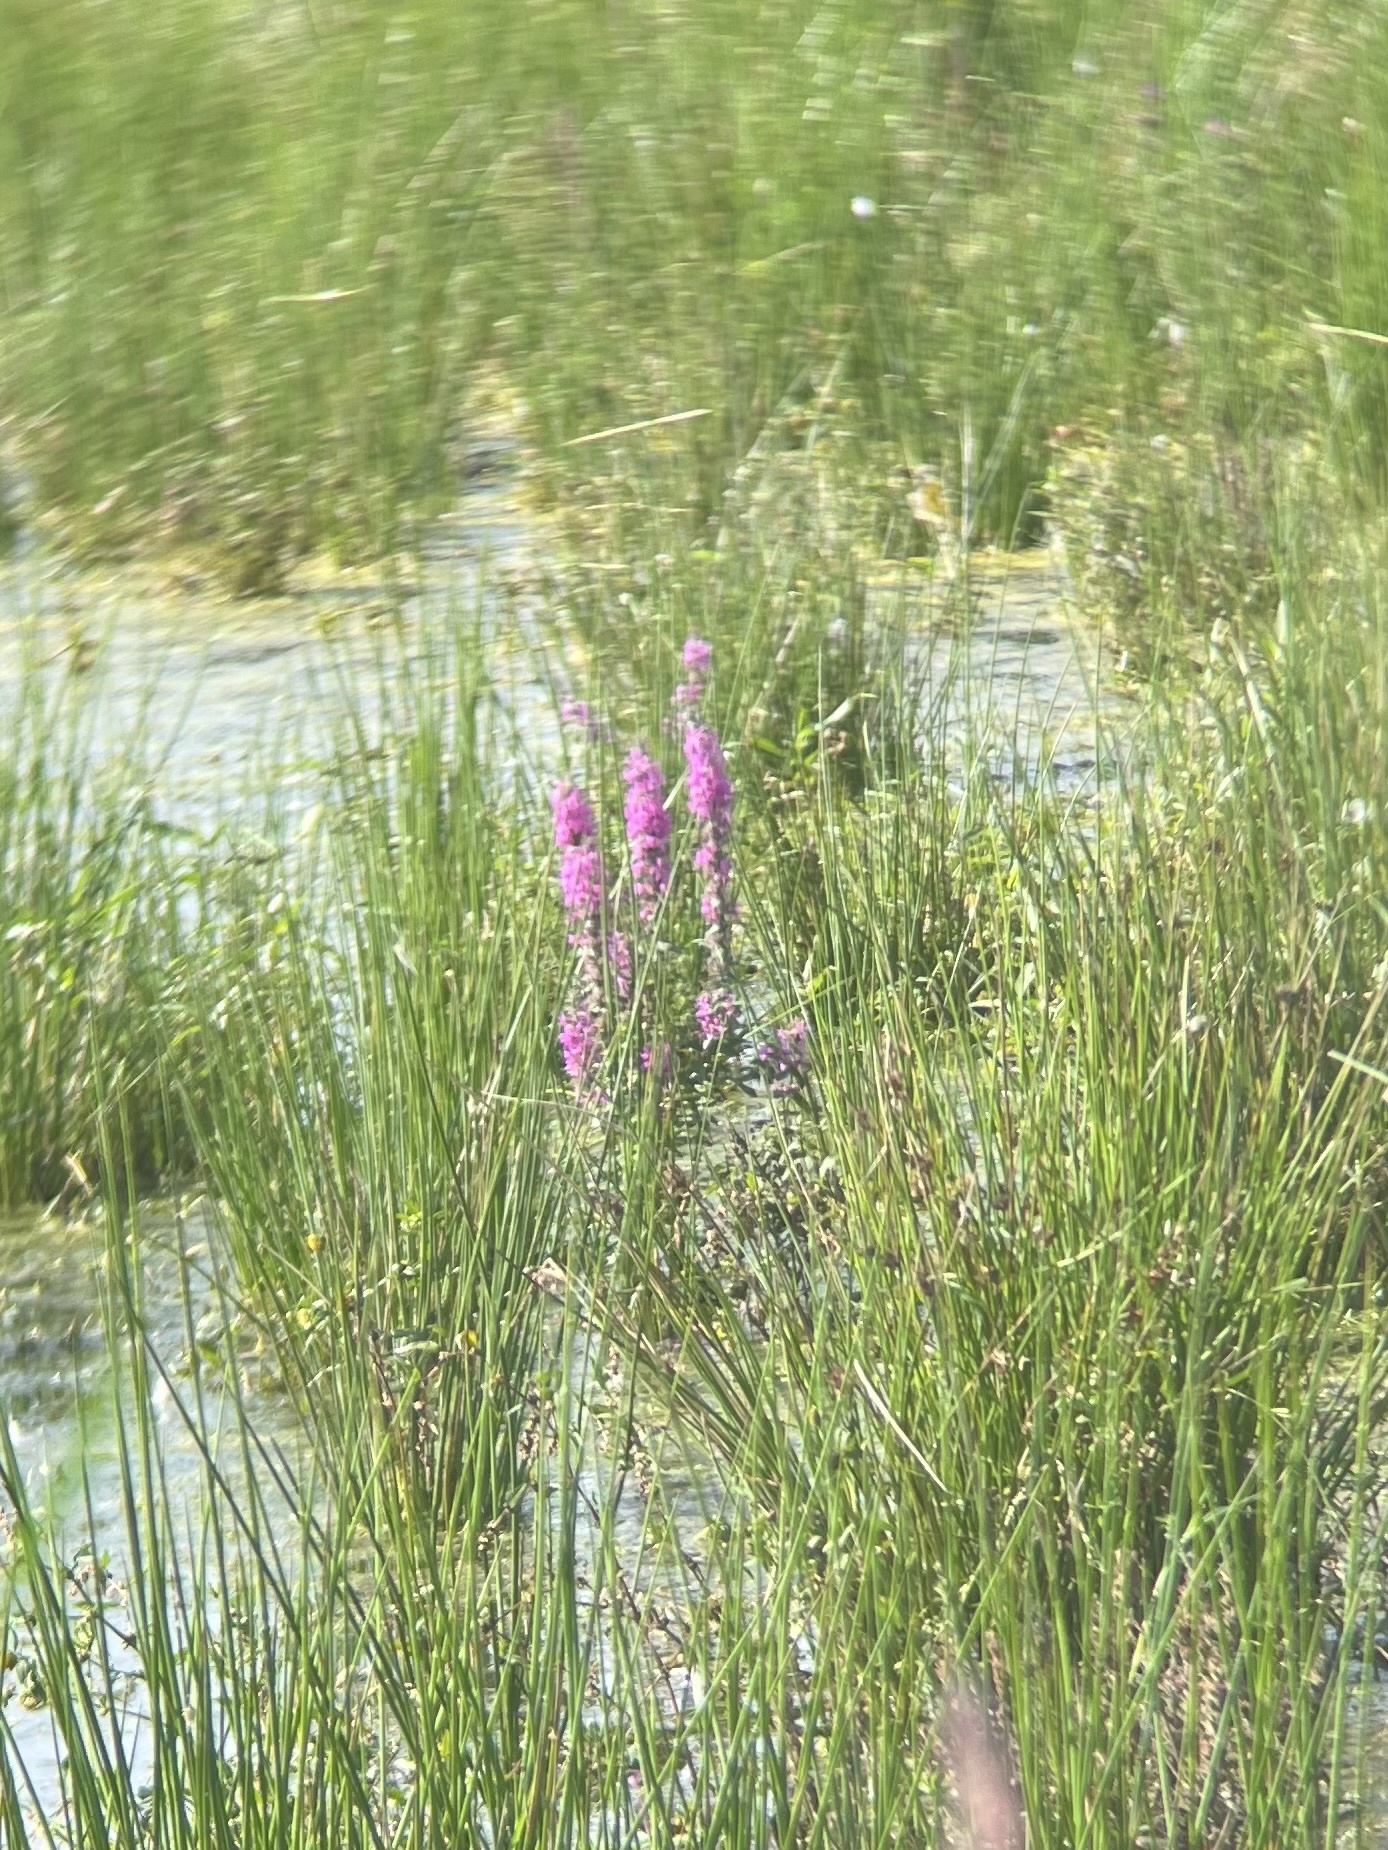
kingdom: Plantae
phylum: Tracheophyta
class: Magnoliopsida
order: Myrtales
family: Lythraceae
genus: Lythrum
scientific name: Lythrum salicaria
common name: Purple loosestrife
